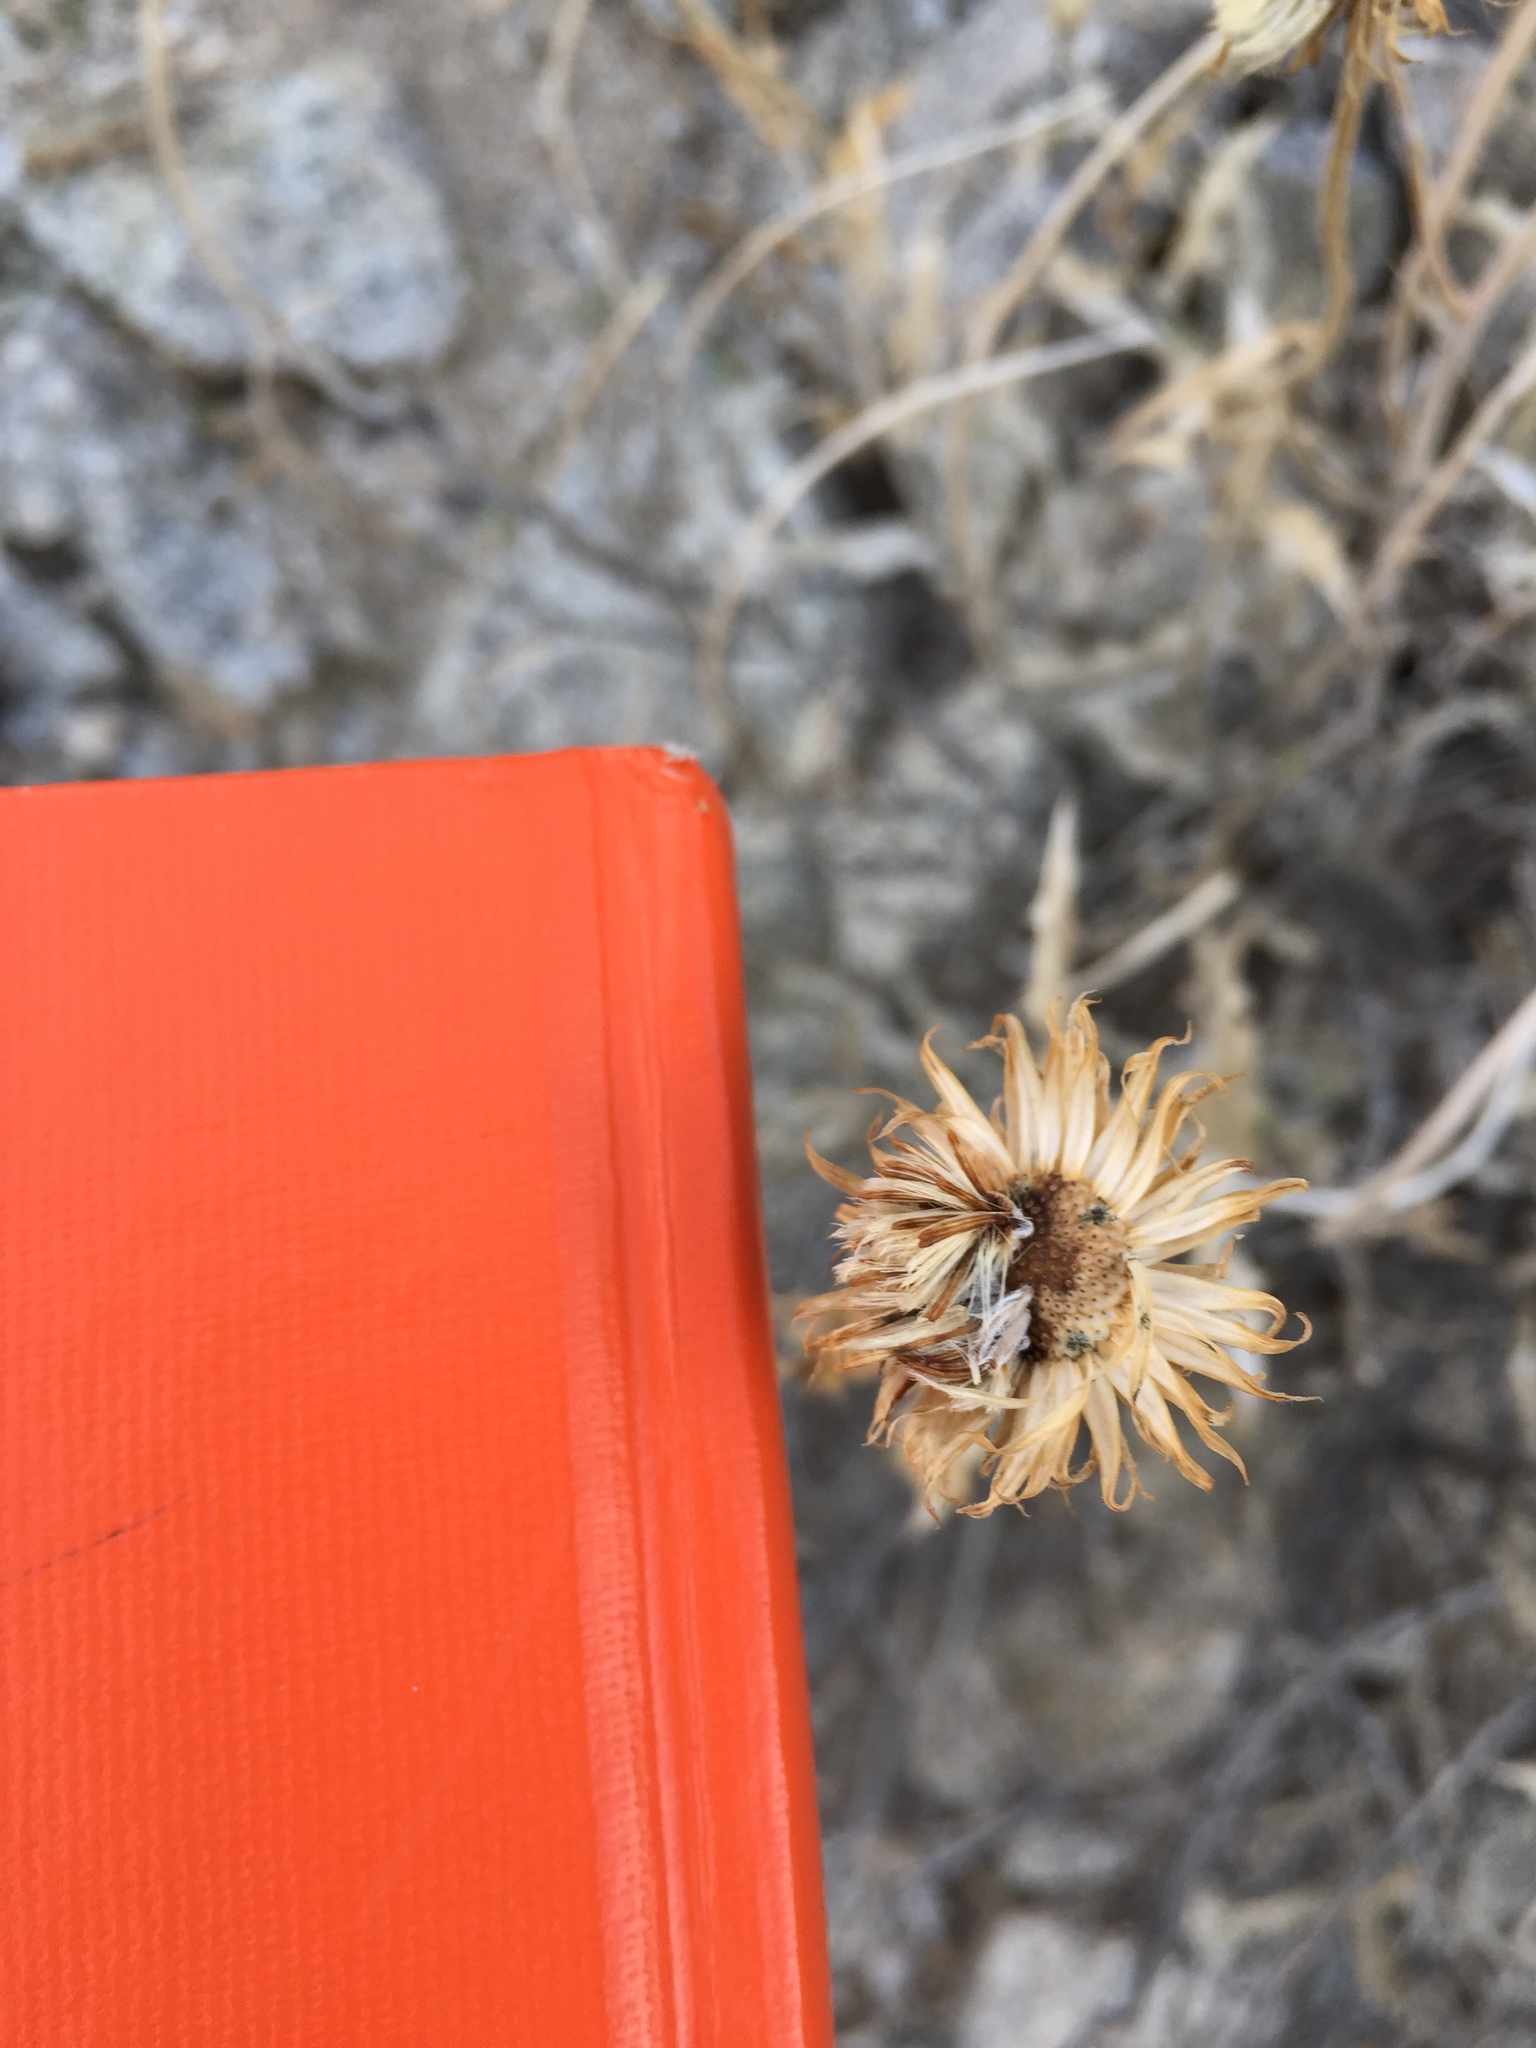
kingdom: Plantae
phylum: Tracheophyta
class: Magnoliopsida
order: Asterales
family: Asteraceae
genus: Xylorhiza
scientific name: Xylorhiza tortifolia
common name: Hurt-leaf woody-aster
